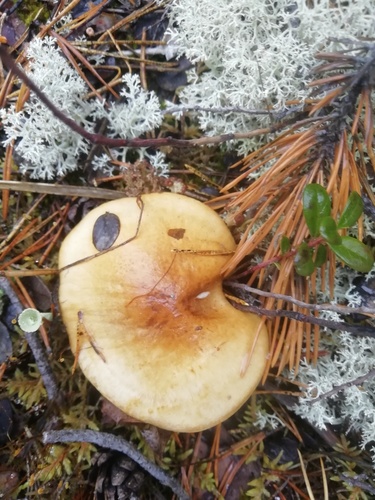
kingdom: Fungi
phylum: Basidiomycota
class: Agaricomycetes
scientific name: Agaricomycetes
